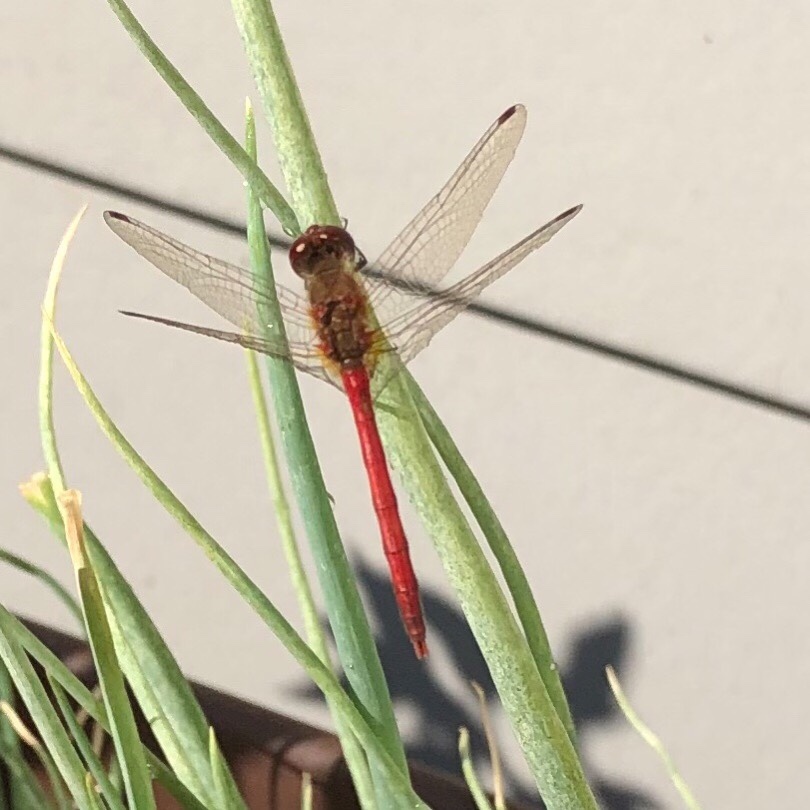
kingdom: Animalia
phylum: Arthropoda
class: Insecta
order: Odonata
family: Libellulidae
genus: Sympetrum
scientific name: Sympetrum vicinum
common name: Autumn meadowhawk
